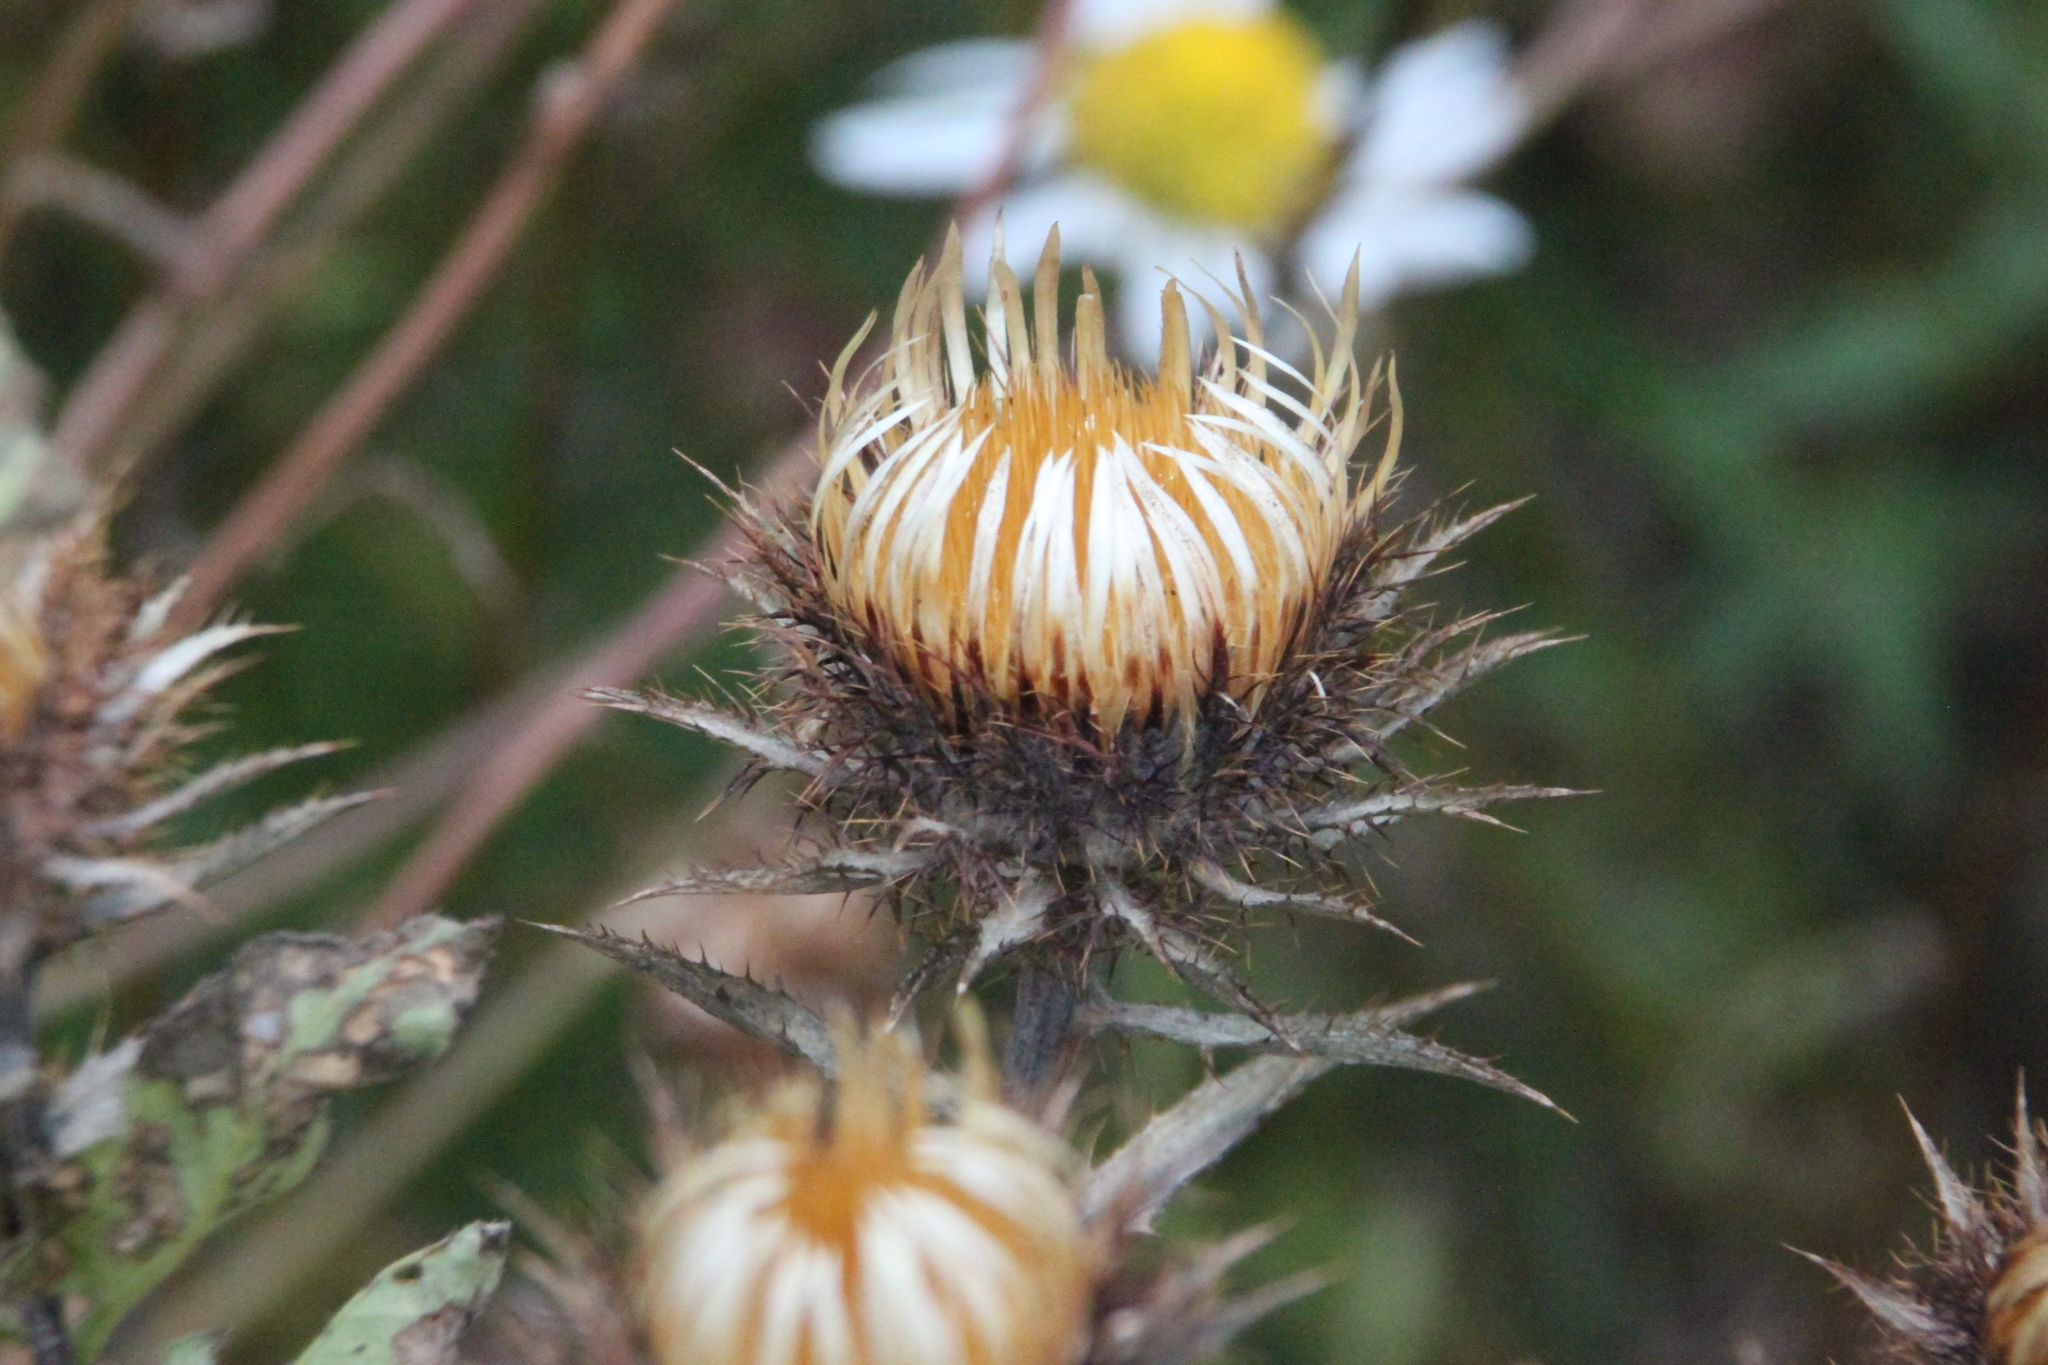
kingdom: Plantae
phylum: Tracheophyta
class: Magnoliopsida
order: Asterales
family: Asteraceae
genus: Carlina
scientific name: Carlina biebersteinii
